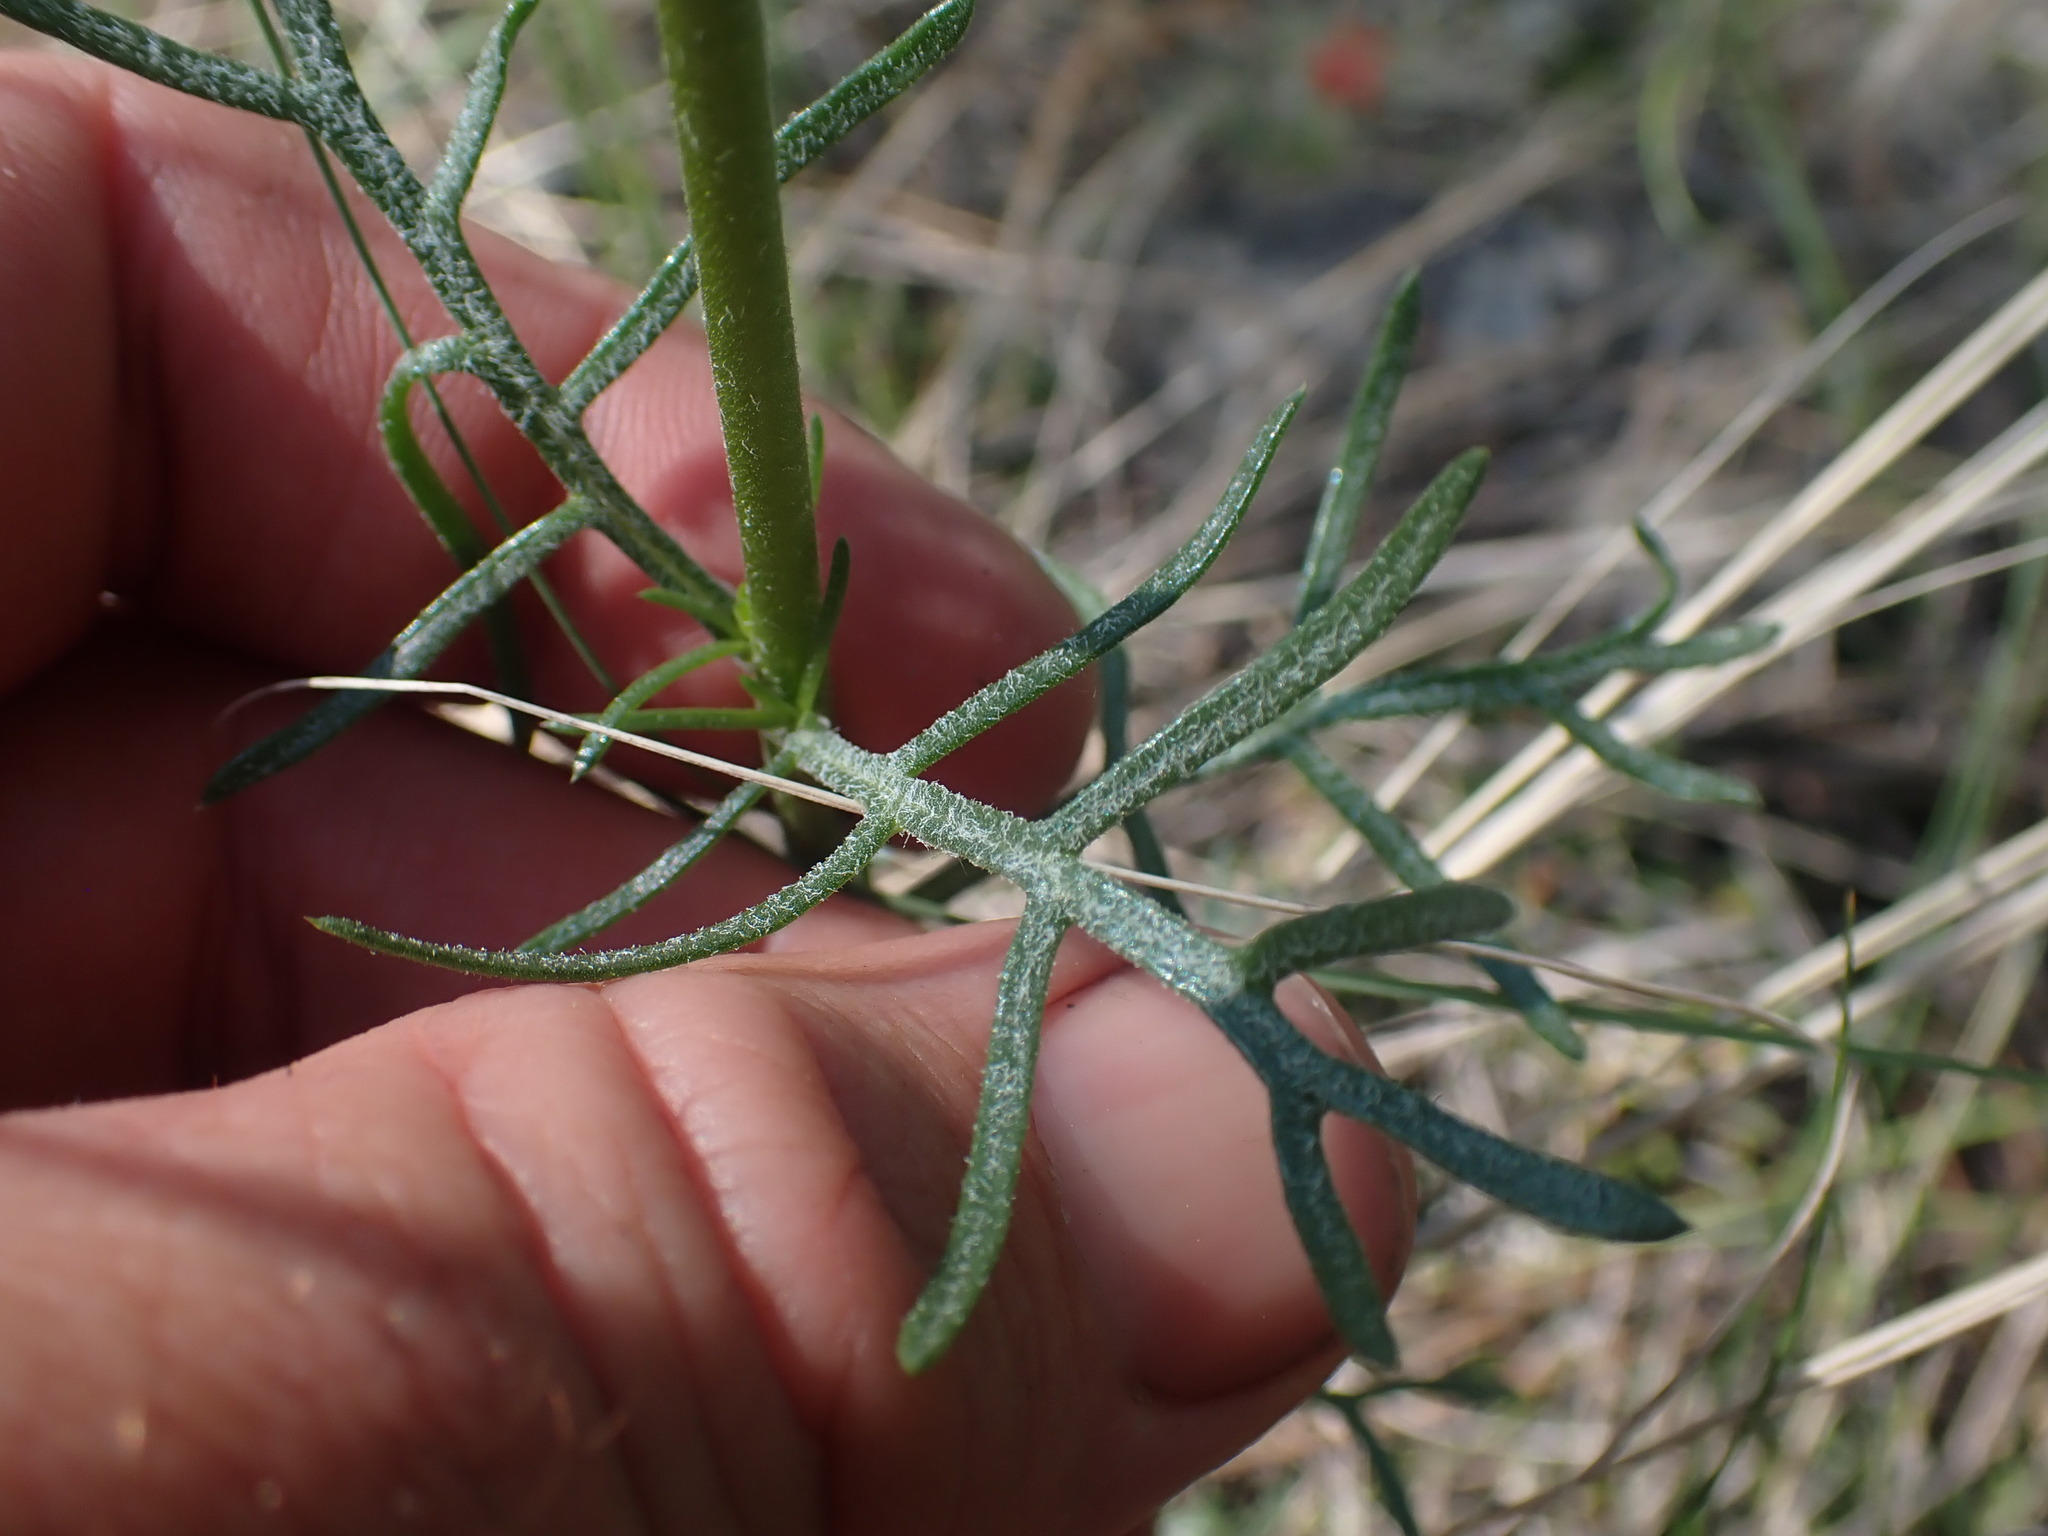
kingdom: Plantae
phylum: Tracheophyta
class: Magnoliopsida
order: Ericales
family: Polemoniaceae
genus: Ipomopsis
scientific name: Ipomopsis aggregata
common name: Scarlet gilia
